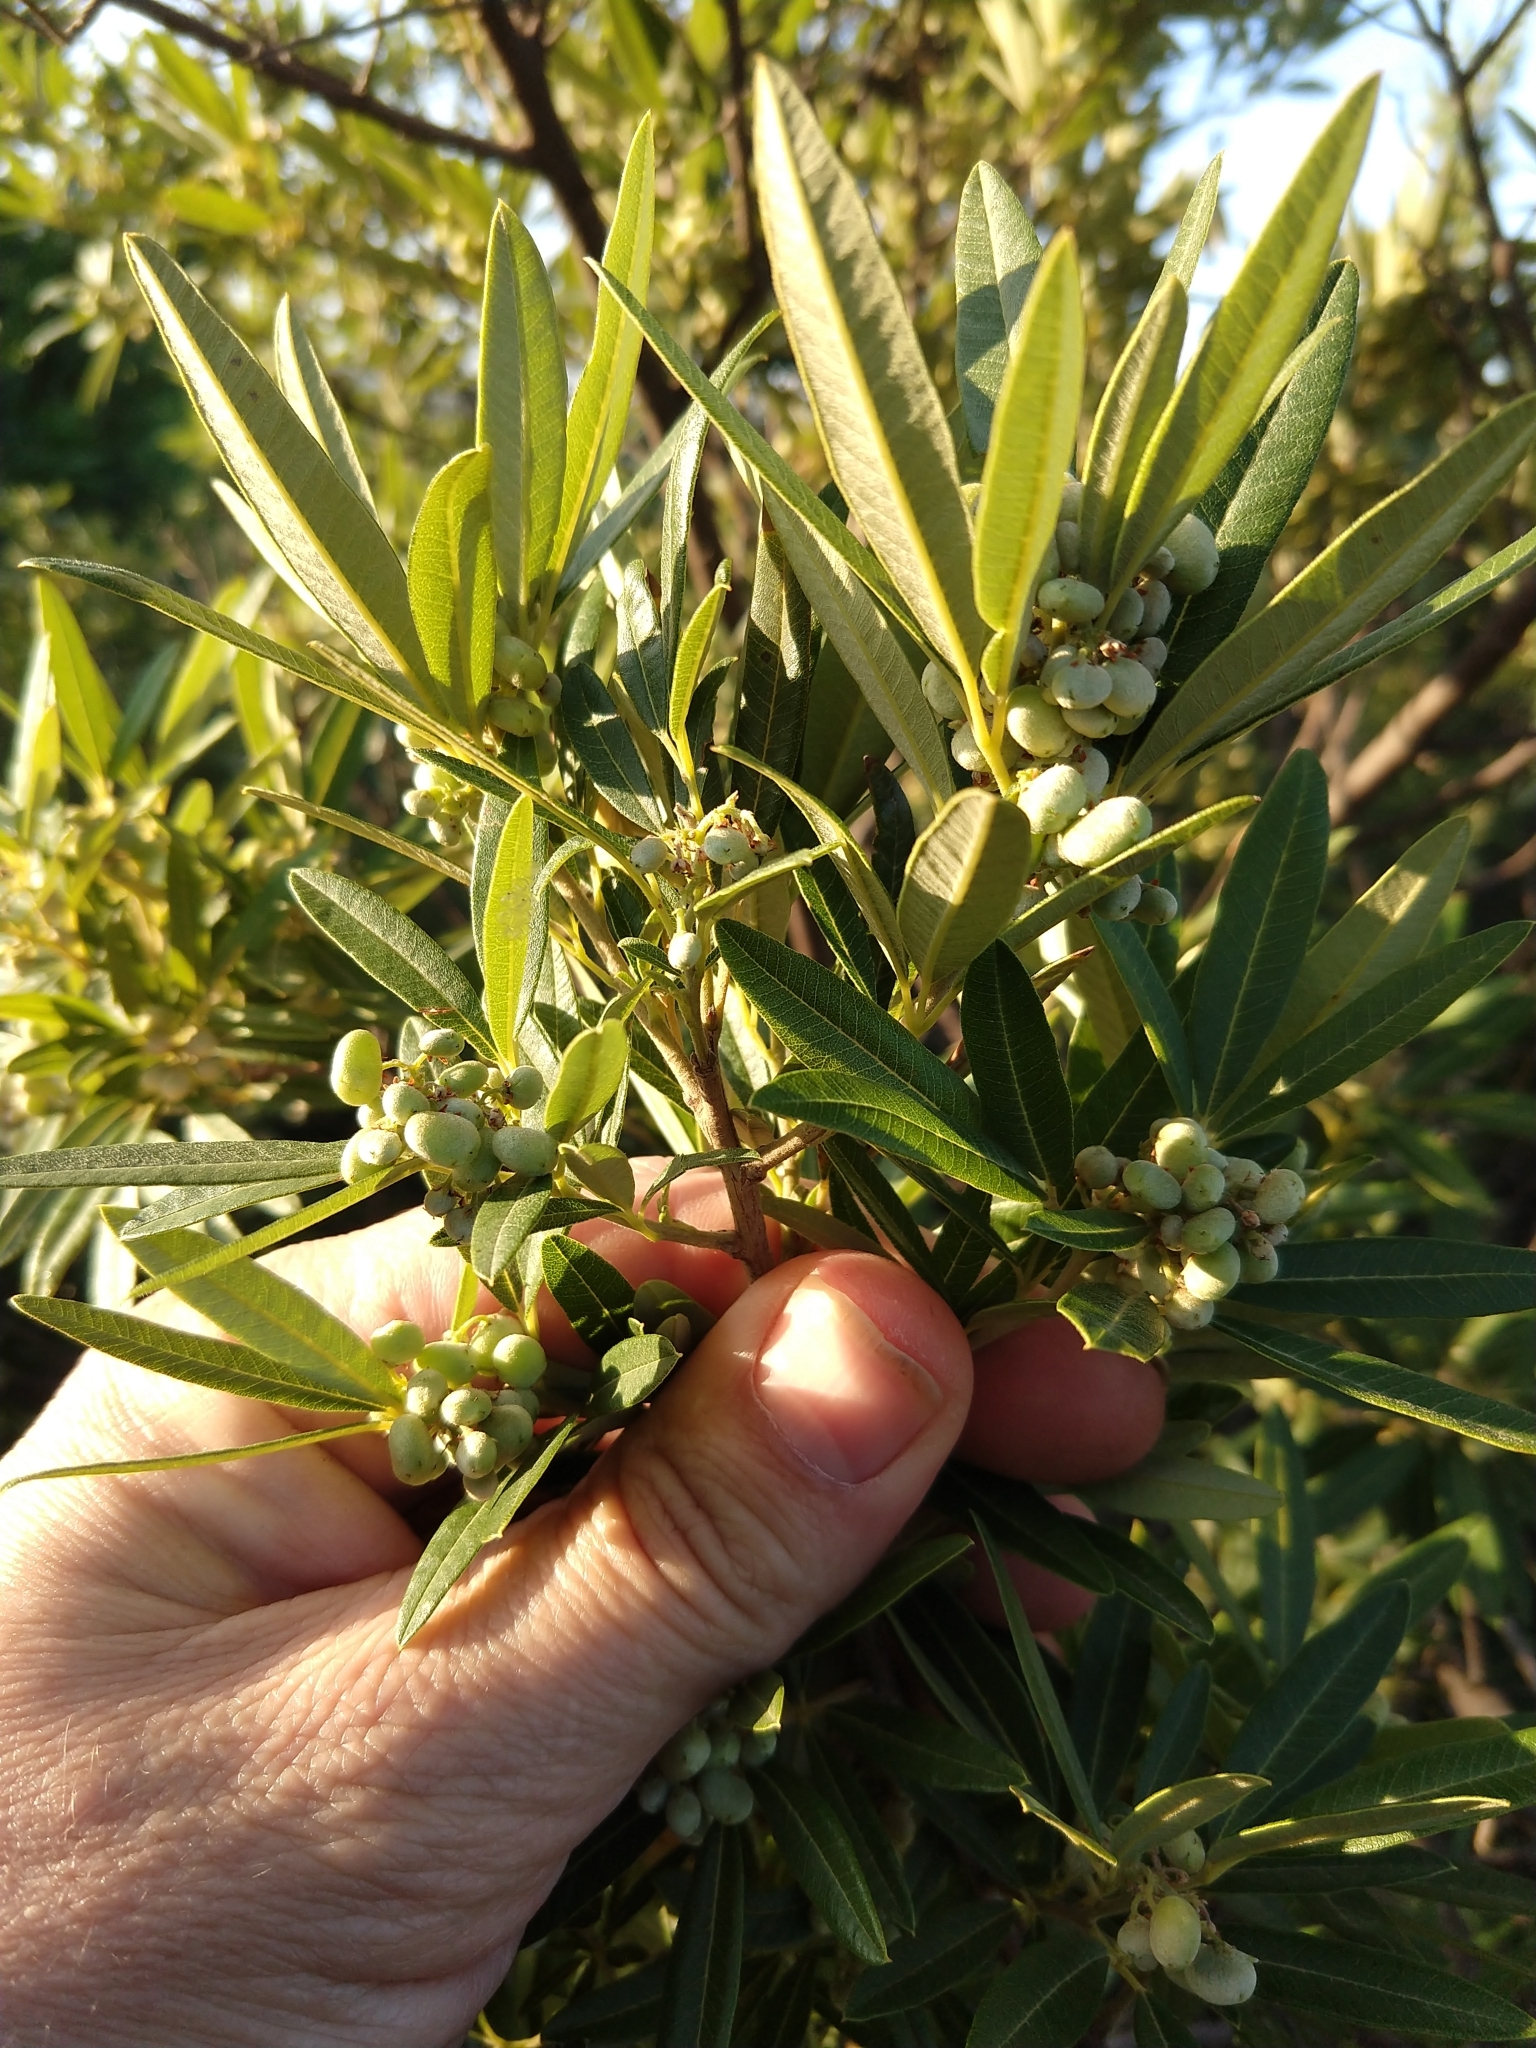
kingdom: Plantae
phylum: Tracheophyta
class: Magnoliopsida
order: Sapindales
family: Anacardiaceae
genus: Searsia
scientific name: Searsia angustifolia
